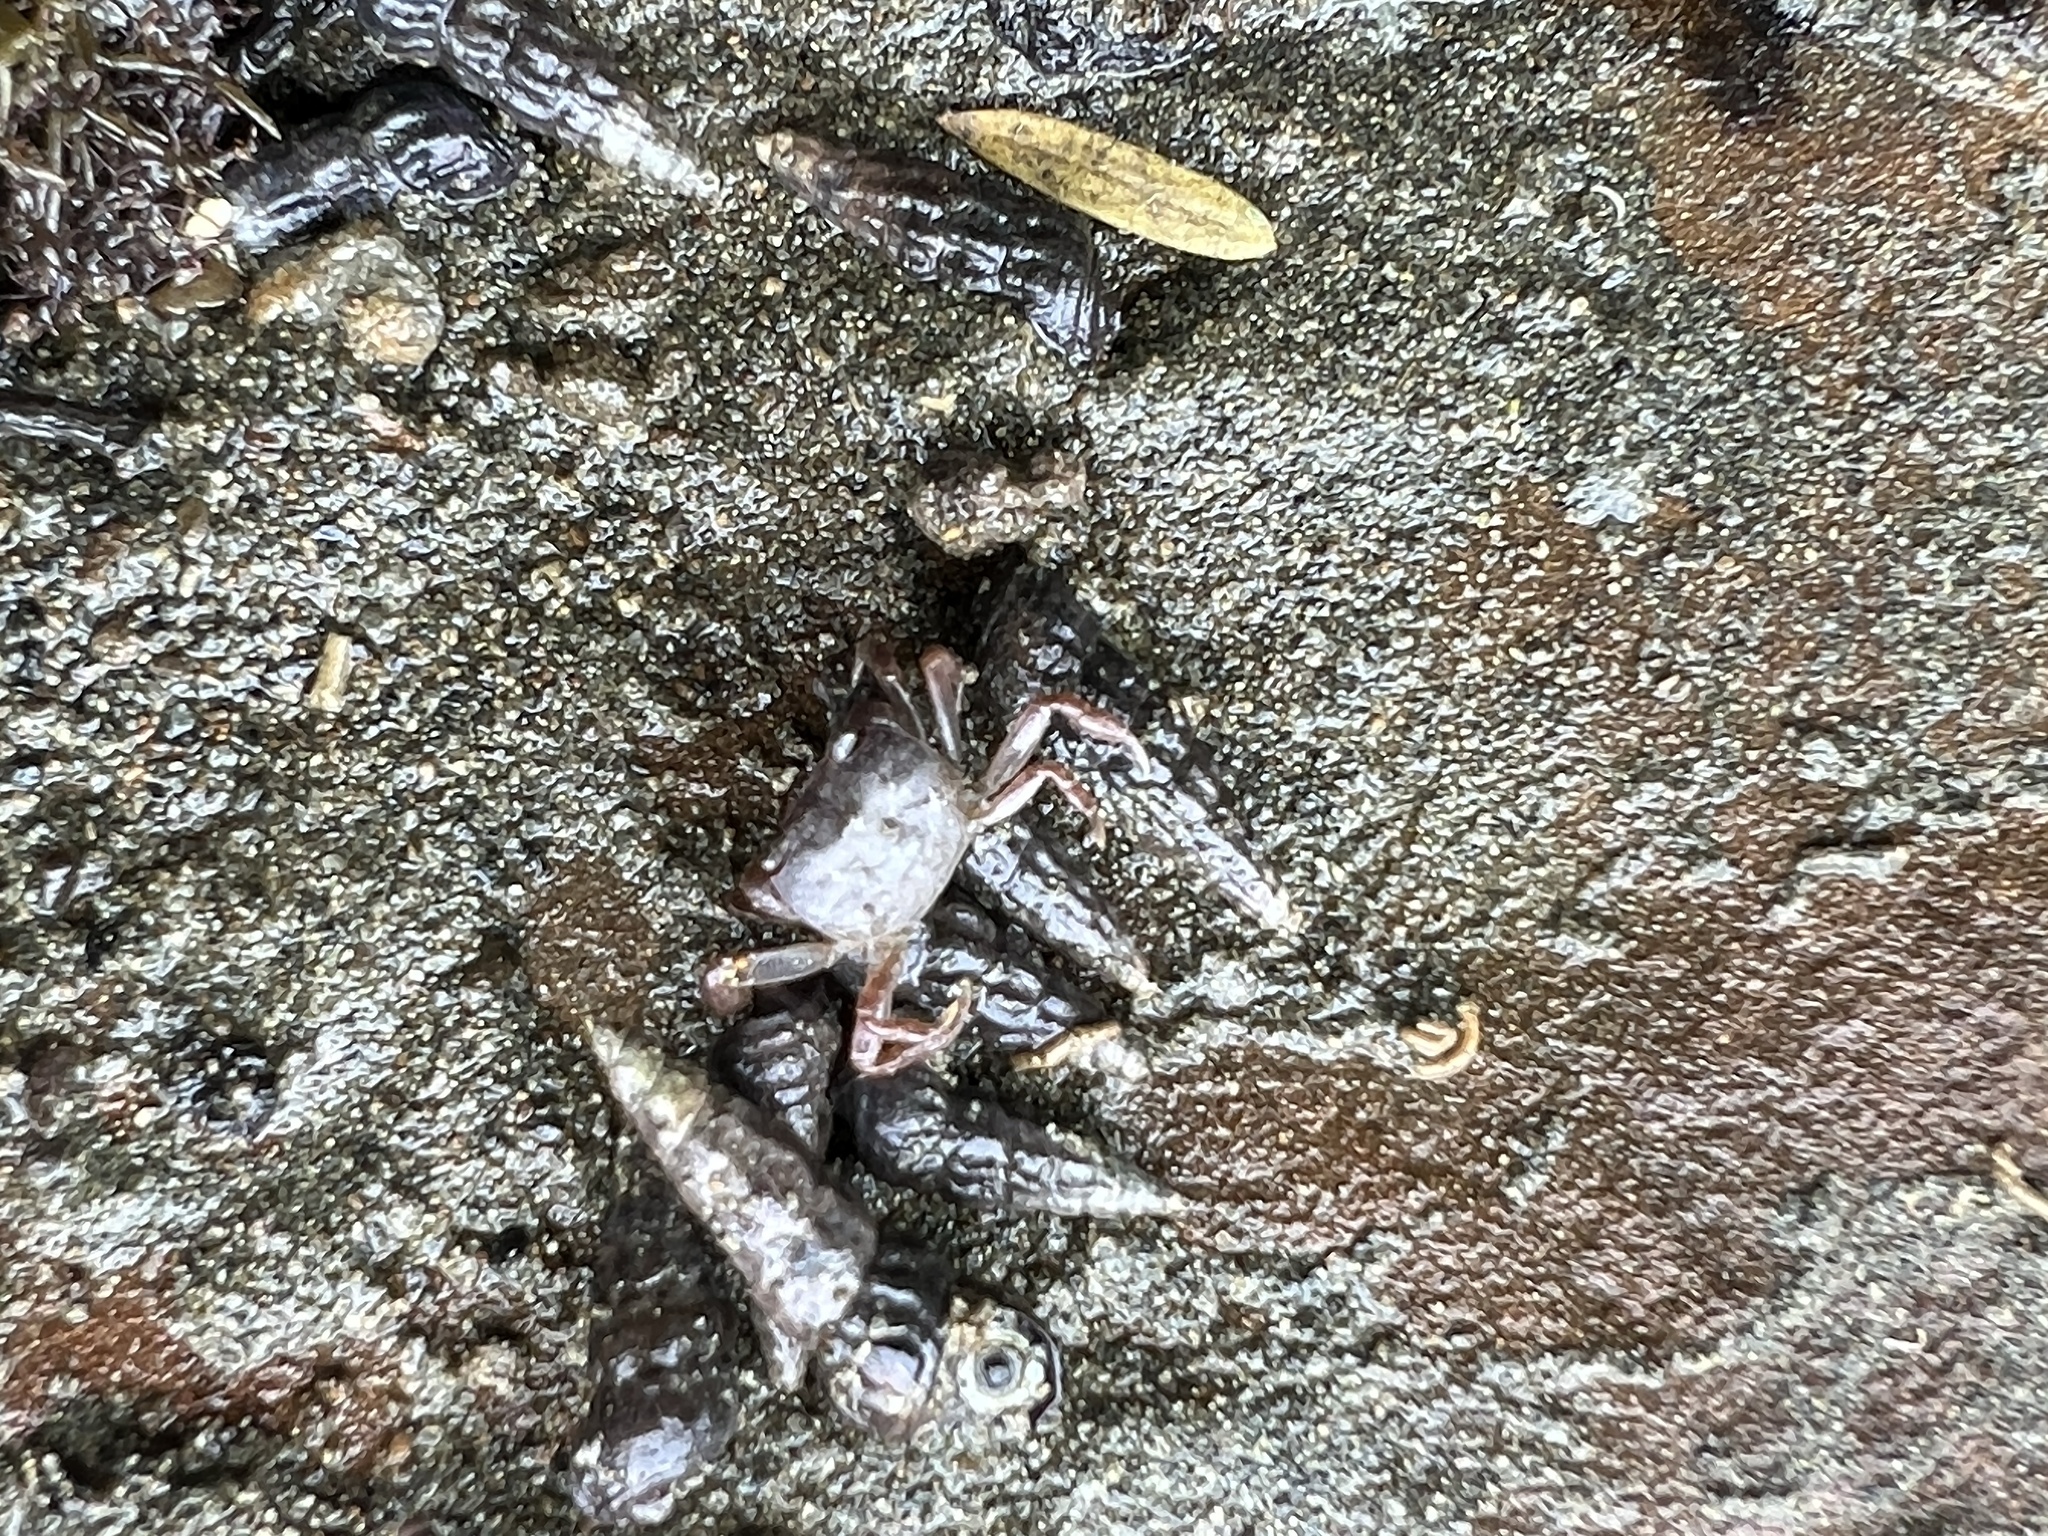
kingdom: Animalia
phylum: Arthropoda
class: Malacostraca
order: Decapoda
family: Varunidae
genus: Cyclograpsus
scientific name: Cyclograpsus lavauxi
